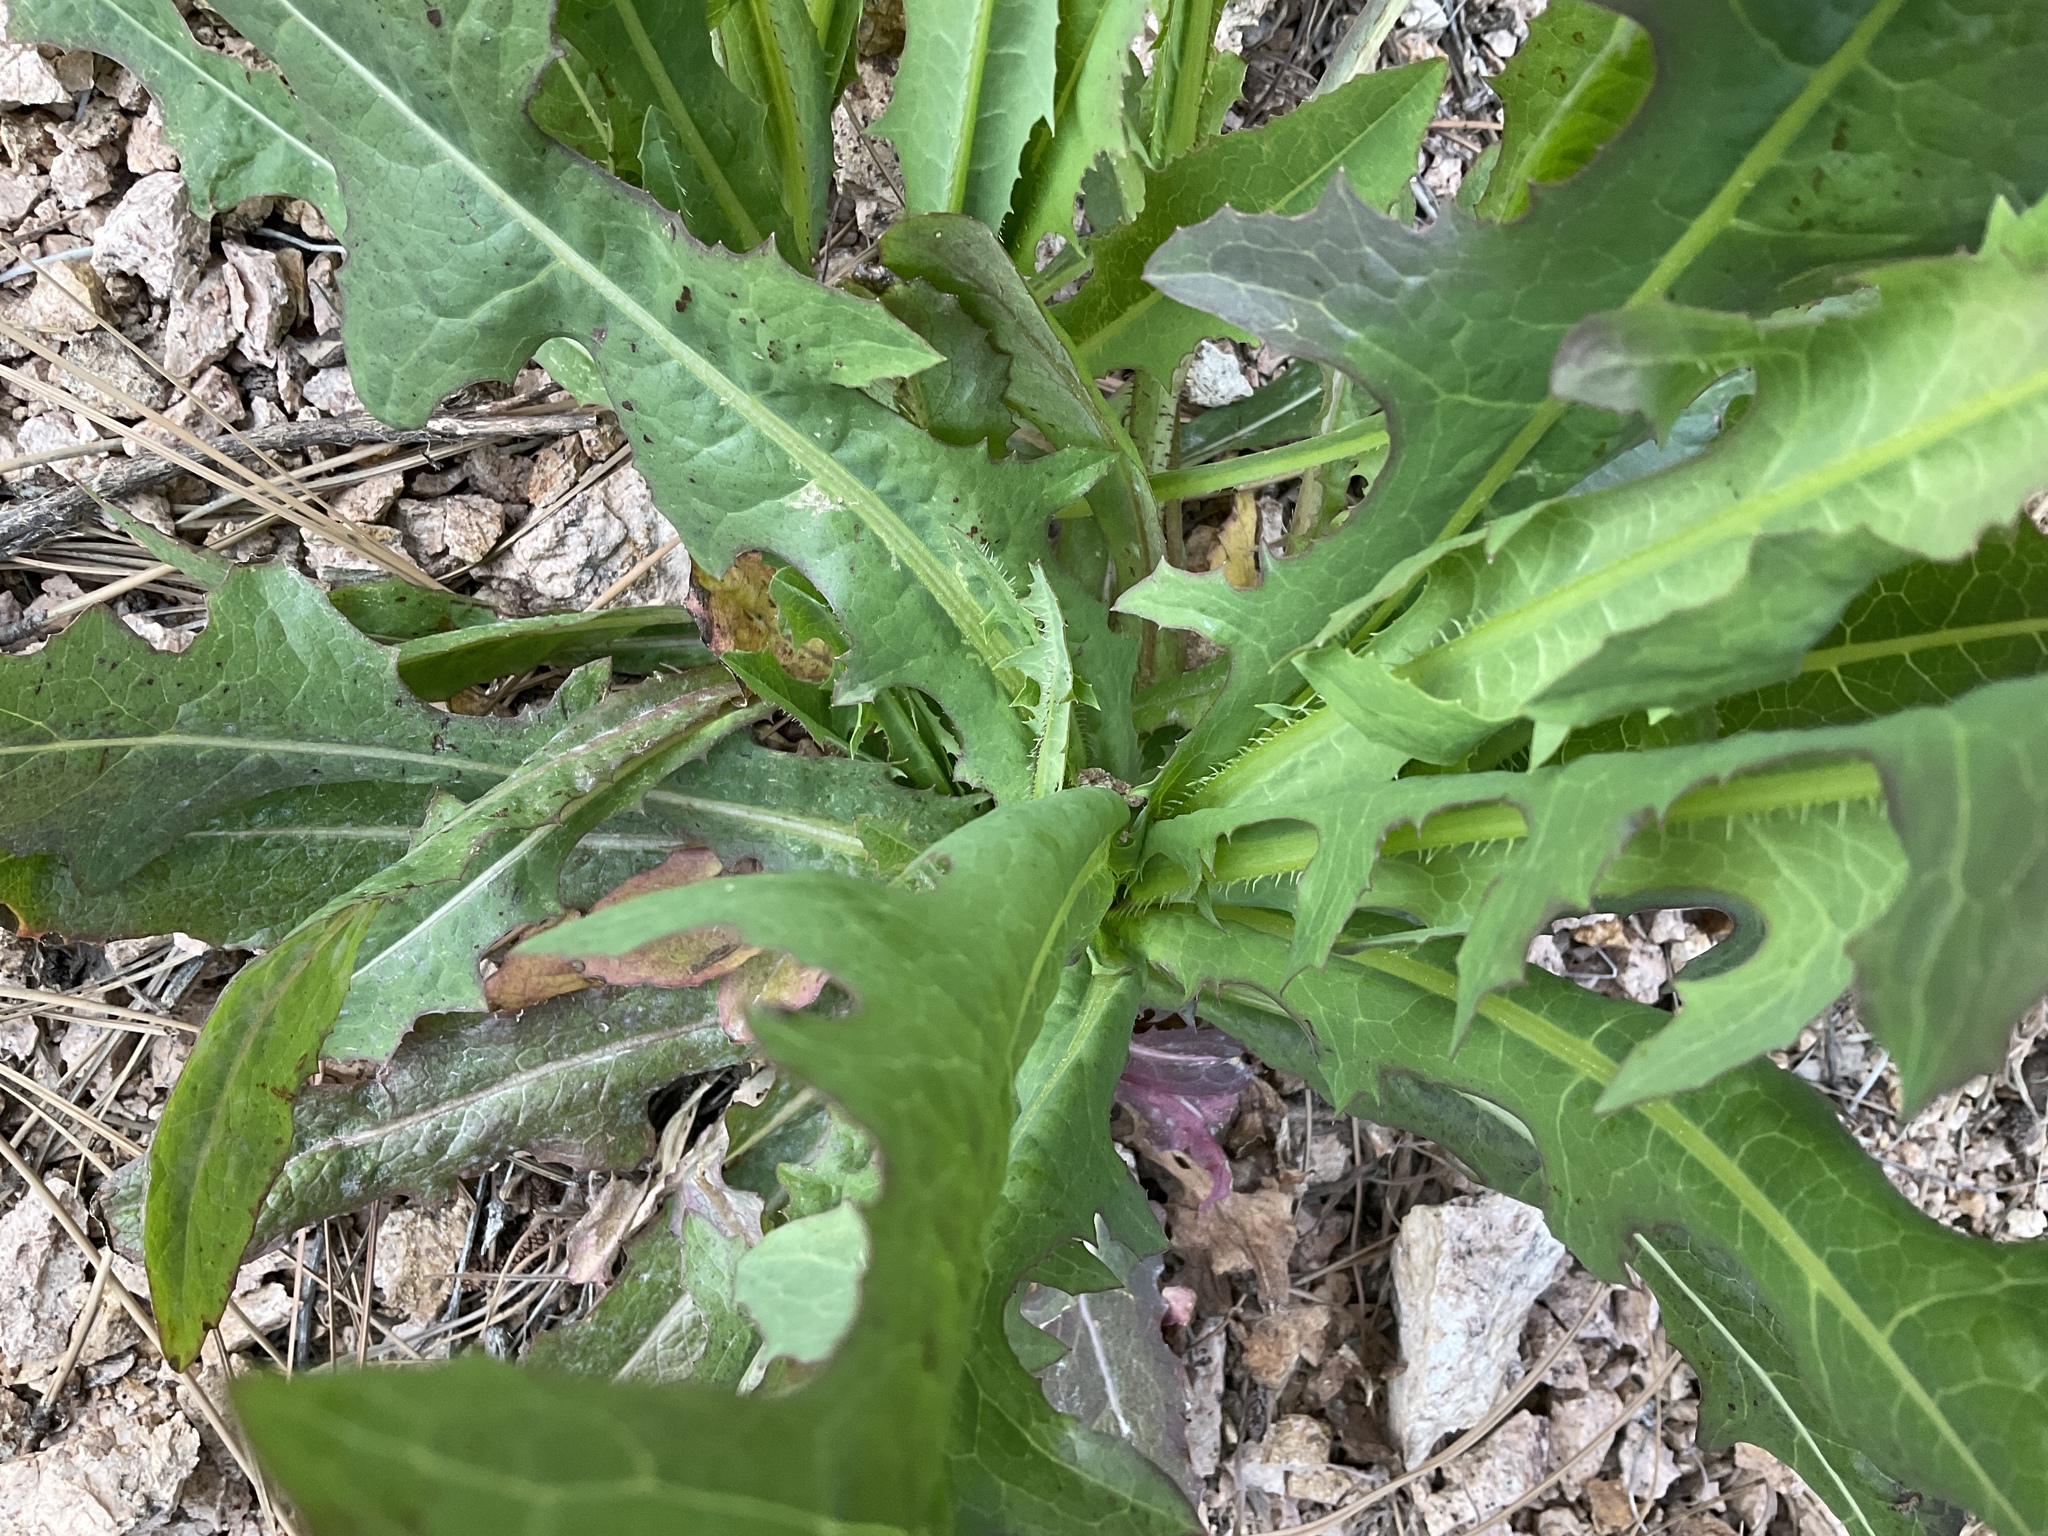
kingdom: Plantae
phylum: Tracheophyta
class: Magnoliopsida
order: Asterales
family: Asteraceae
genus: Lactuca
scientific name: Lactuca serriola
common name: Prickly lettuce
